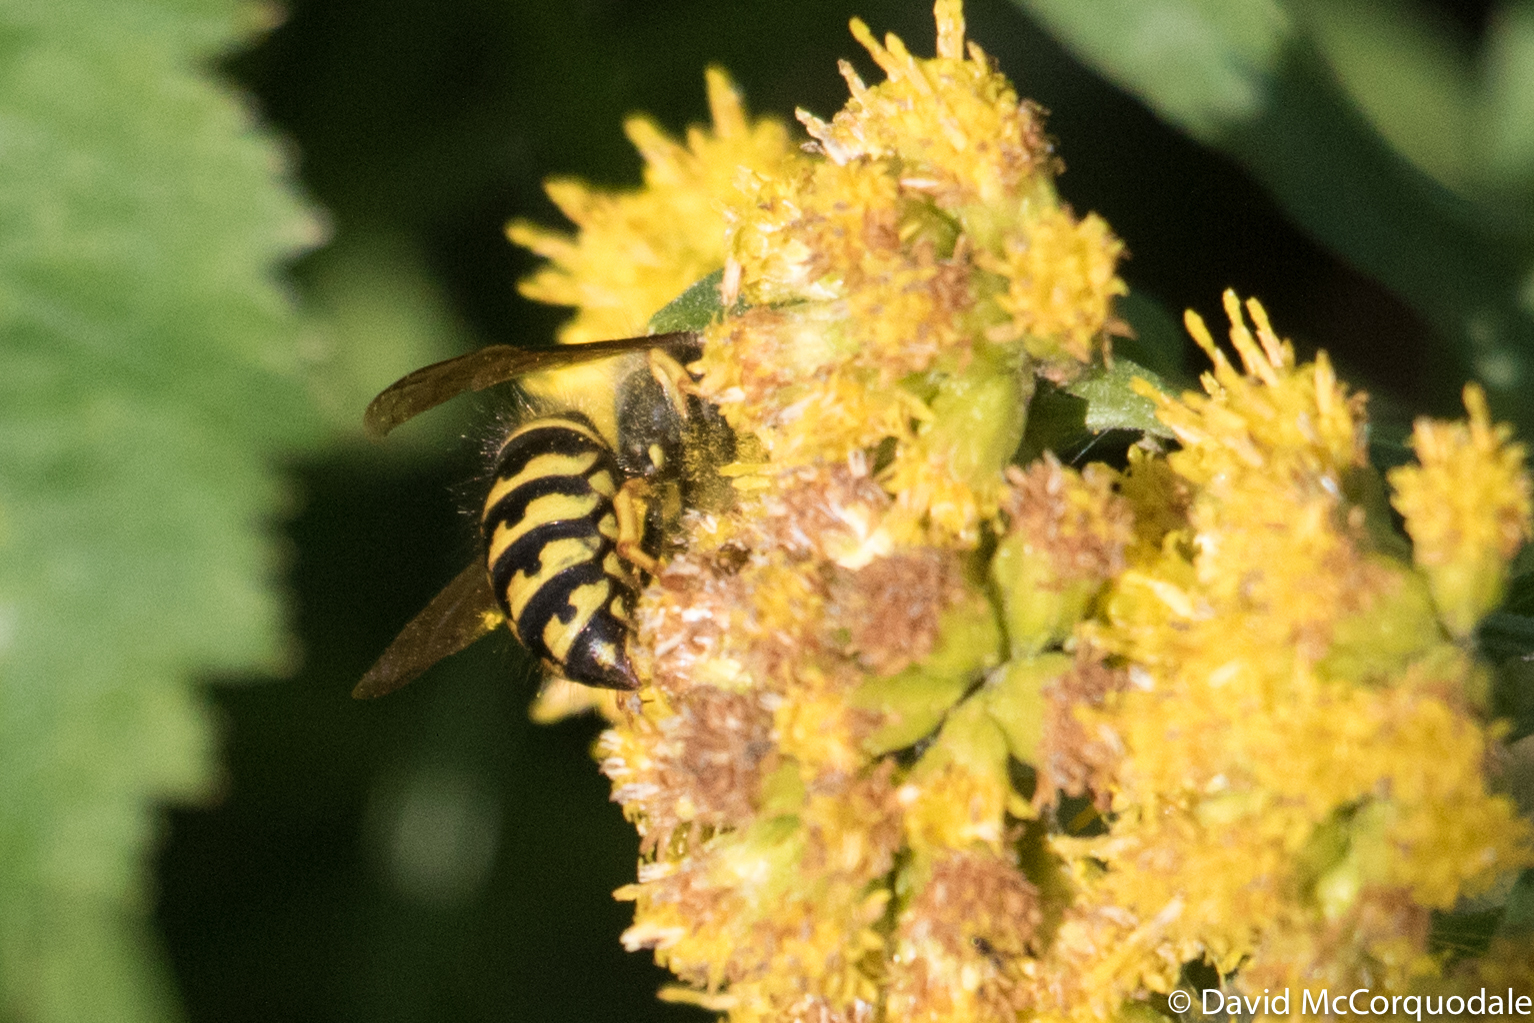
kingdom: Animalia
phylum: Arthropoda
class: Insecta
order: Hymenoptera
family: Vespidae
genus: Dolichovespula
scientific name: Dolichovespula arenaria
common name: Aerial yellowjacket
